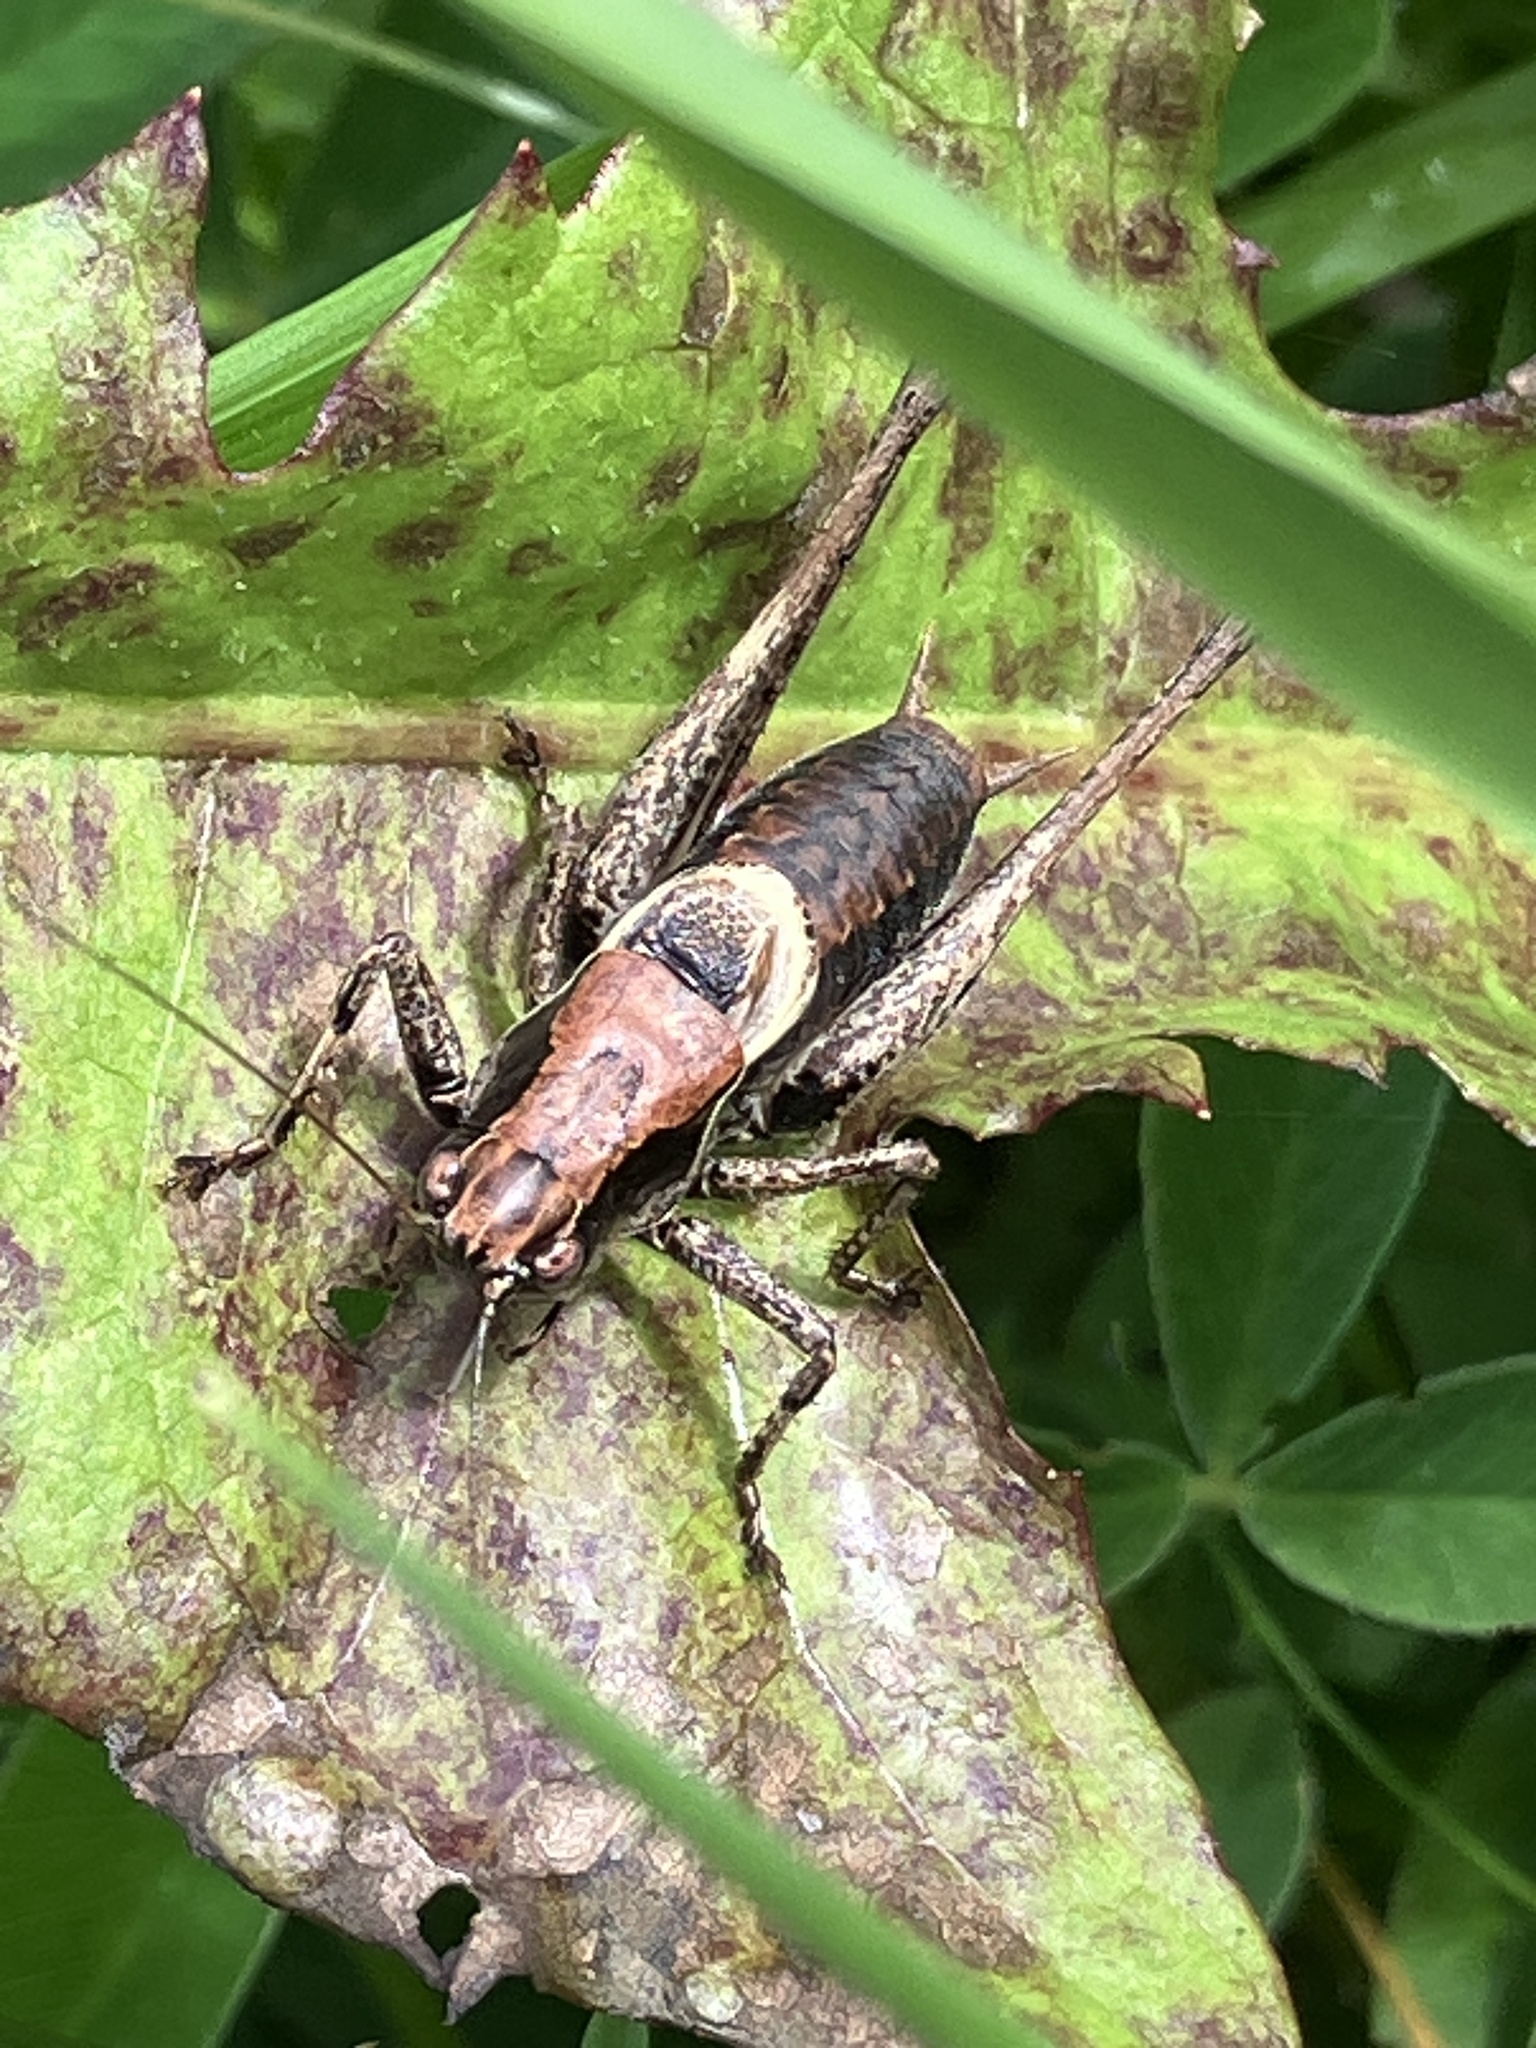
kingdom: Animalia
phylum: Arthropoda
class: Insecta
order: Orthoptera
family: Tettigoniidae
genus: Pholidoptera
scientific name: Pholidoptera griseoaptera
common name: Dark bush-cricket
